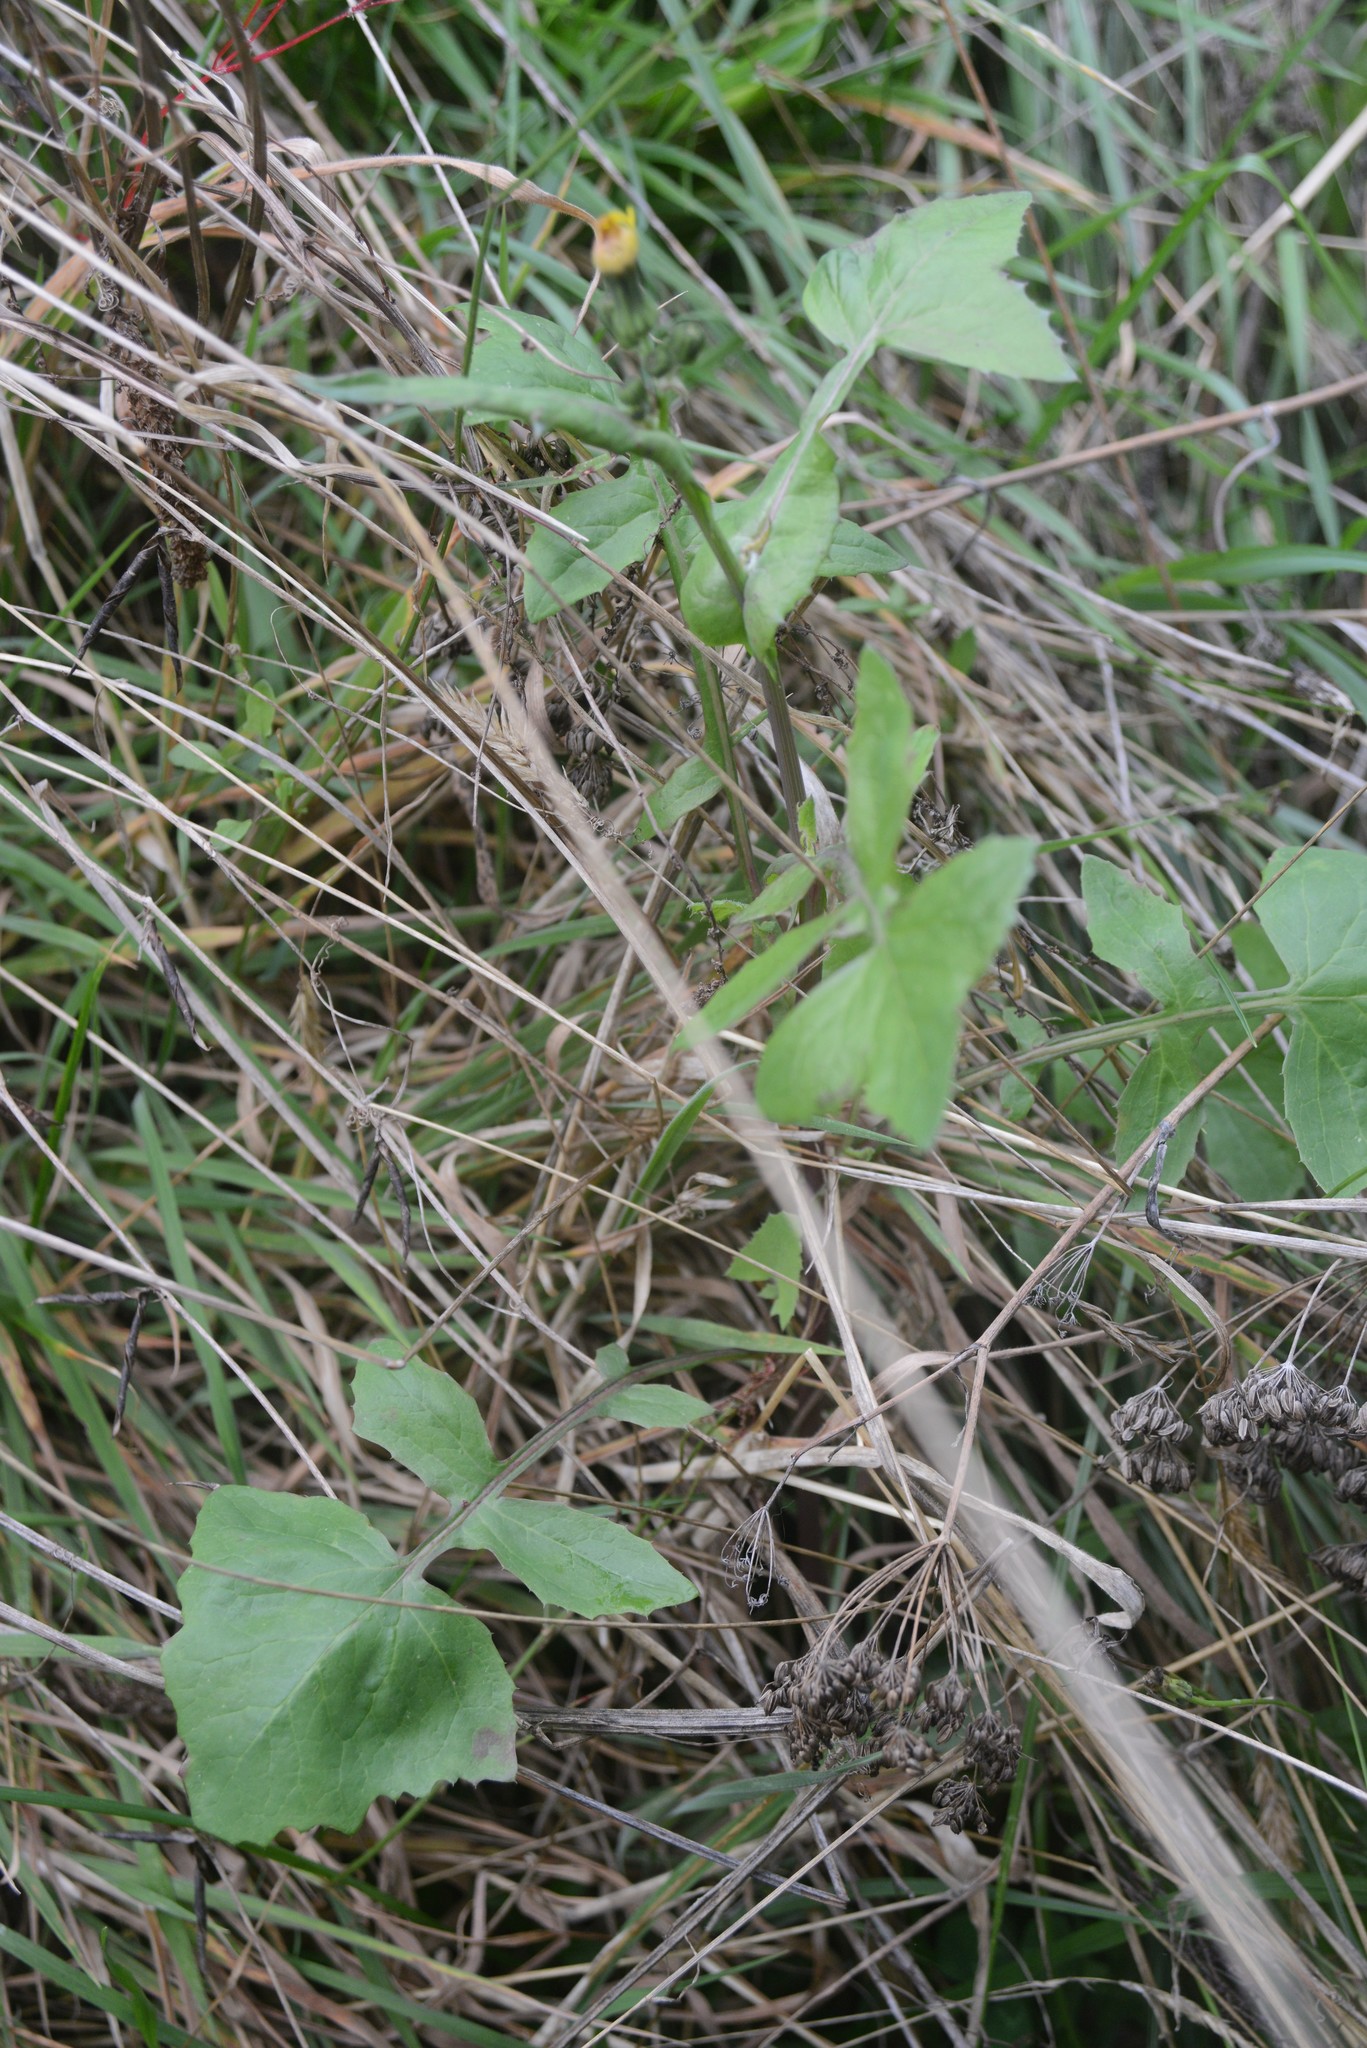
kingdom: Plantae
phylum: Tracheophyta
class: Magnoliopsida
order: Asterales
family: Asteraceae
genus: Sonchus
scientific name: Sonchus oleraceus
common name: Common sowthistle
